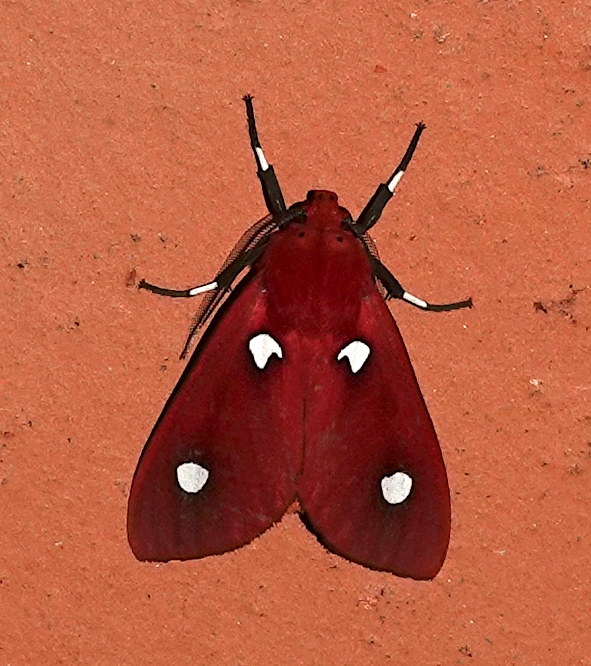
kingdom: Animalia
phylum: Arthropoda
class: Insecta
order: Lepidoptera
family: Erebidae
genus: Hyperthaema
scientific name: Hyperthaema perflammans
